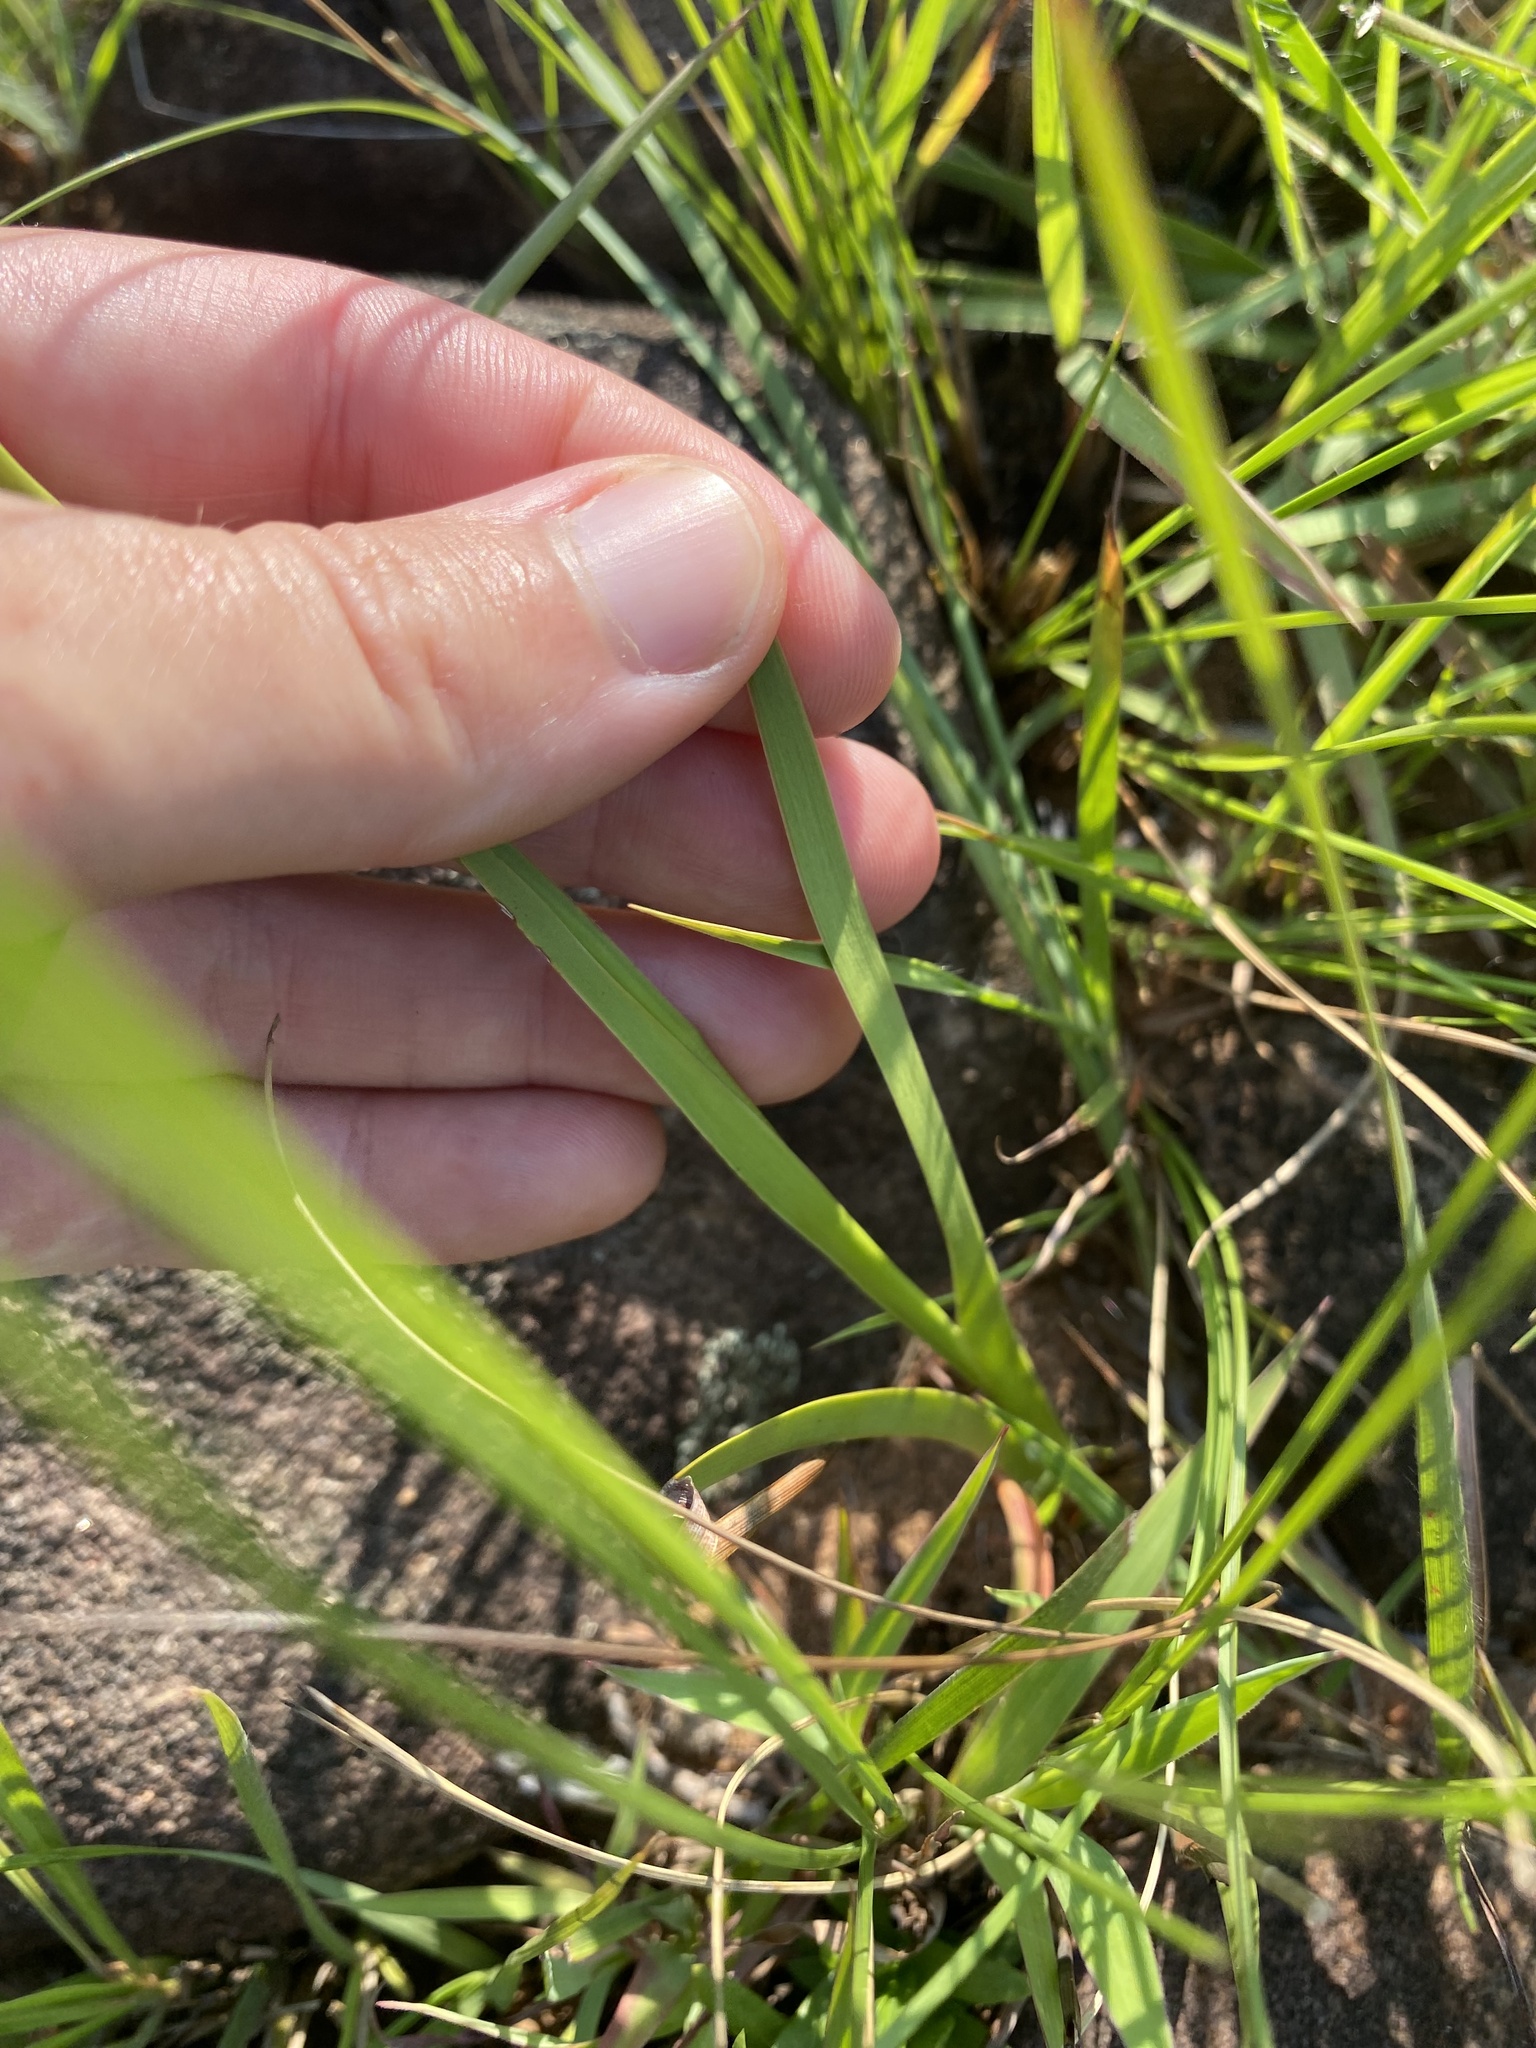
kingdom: Plantae
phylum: Tracheophyta
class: Liliopsida
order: Asparagales
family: Iridaceae
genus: Aristea
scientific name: Aristea abyssinica
